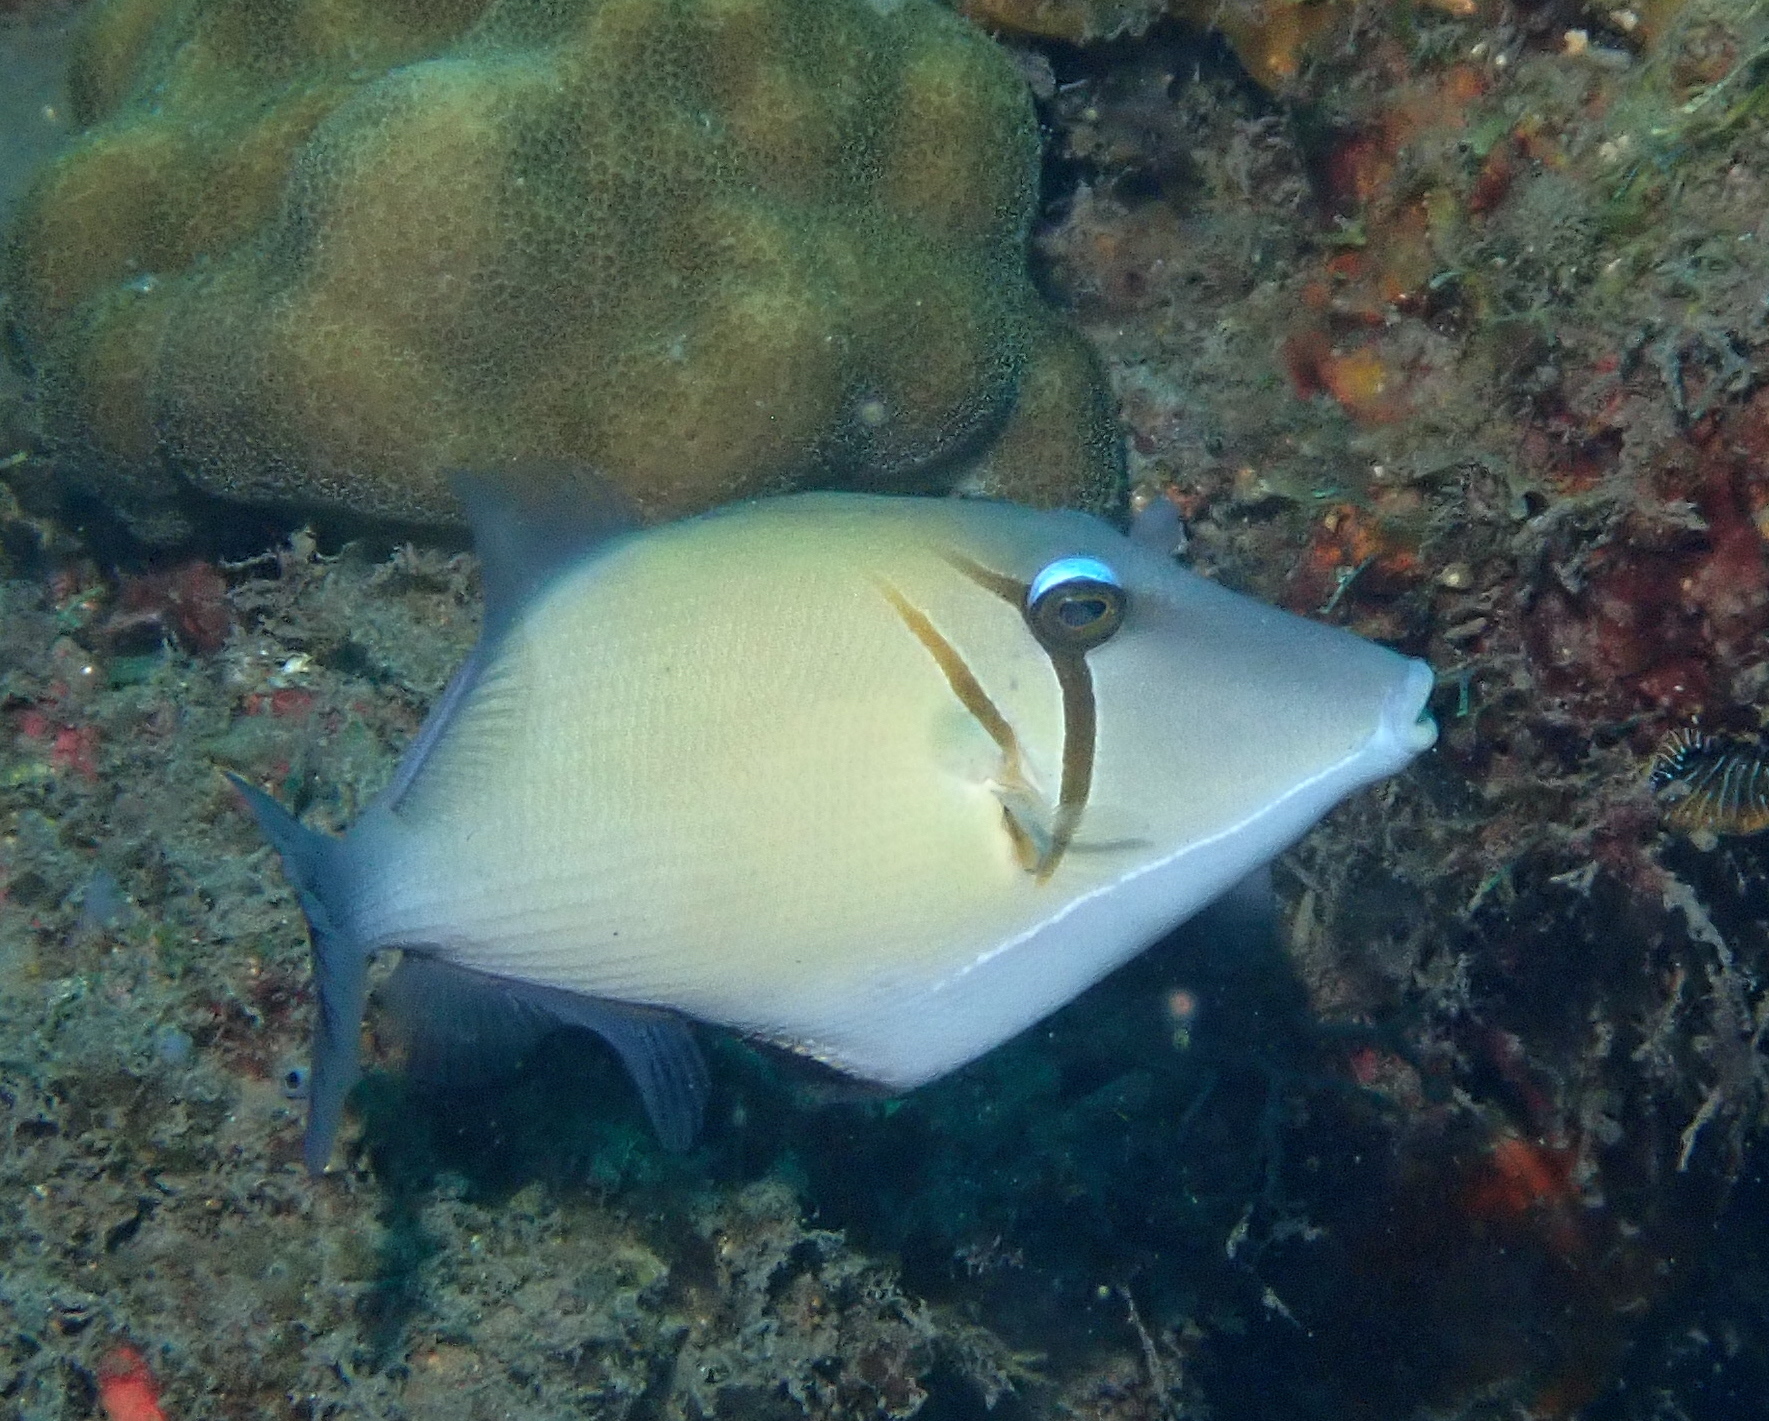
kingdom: Animalia
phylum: Chordata
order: Tetraodontiformes
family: Balistidae
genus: Sufflamen
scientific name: Sufflamen bursa
